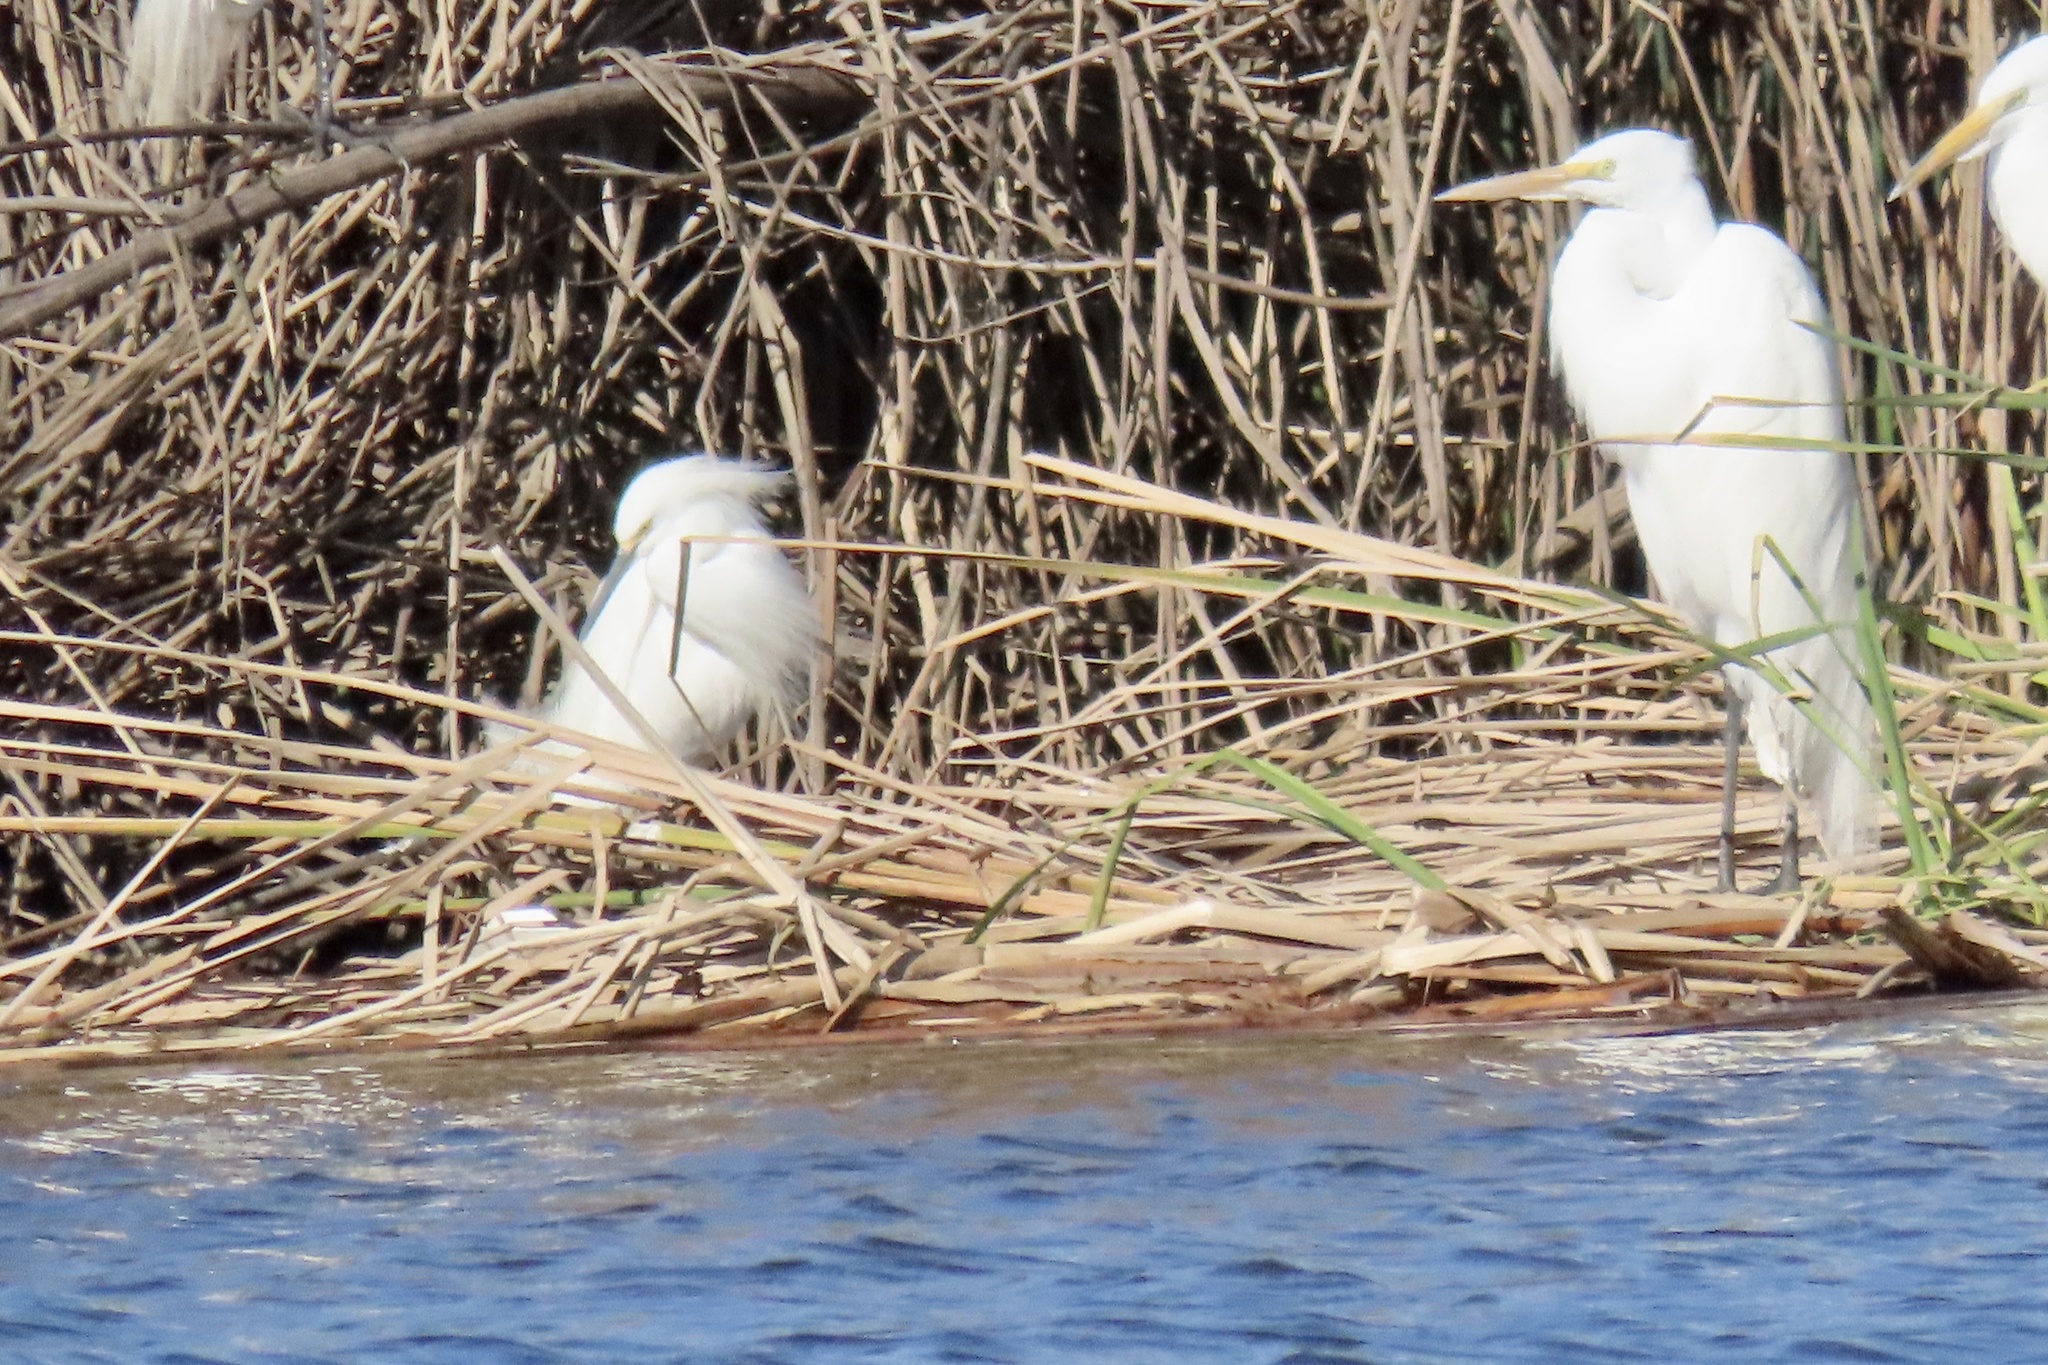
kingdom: Animalia
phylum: Chordata
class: Aves
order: Pelecaniformes
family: Ardeidae
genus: Ardea
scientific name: Ardea alba
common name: Great egret
